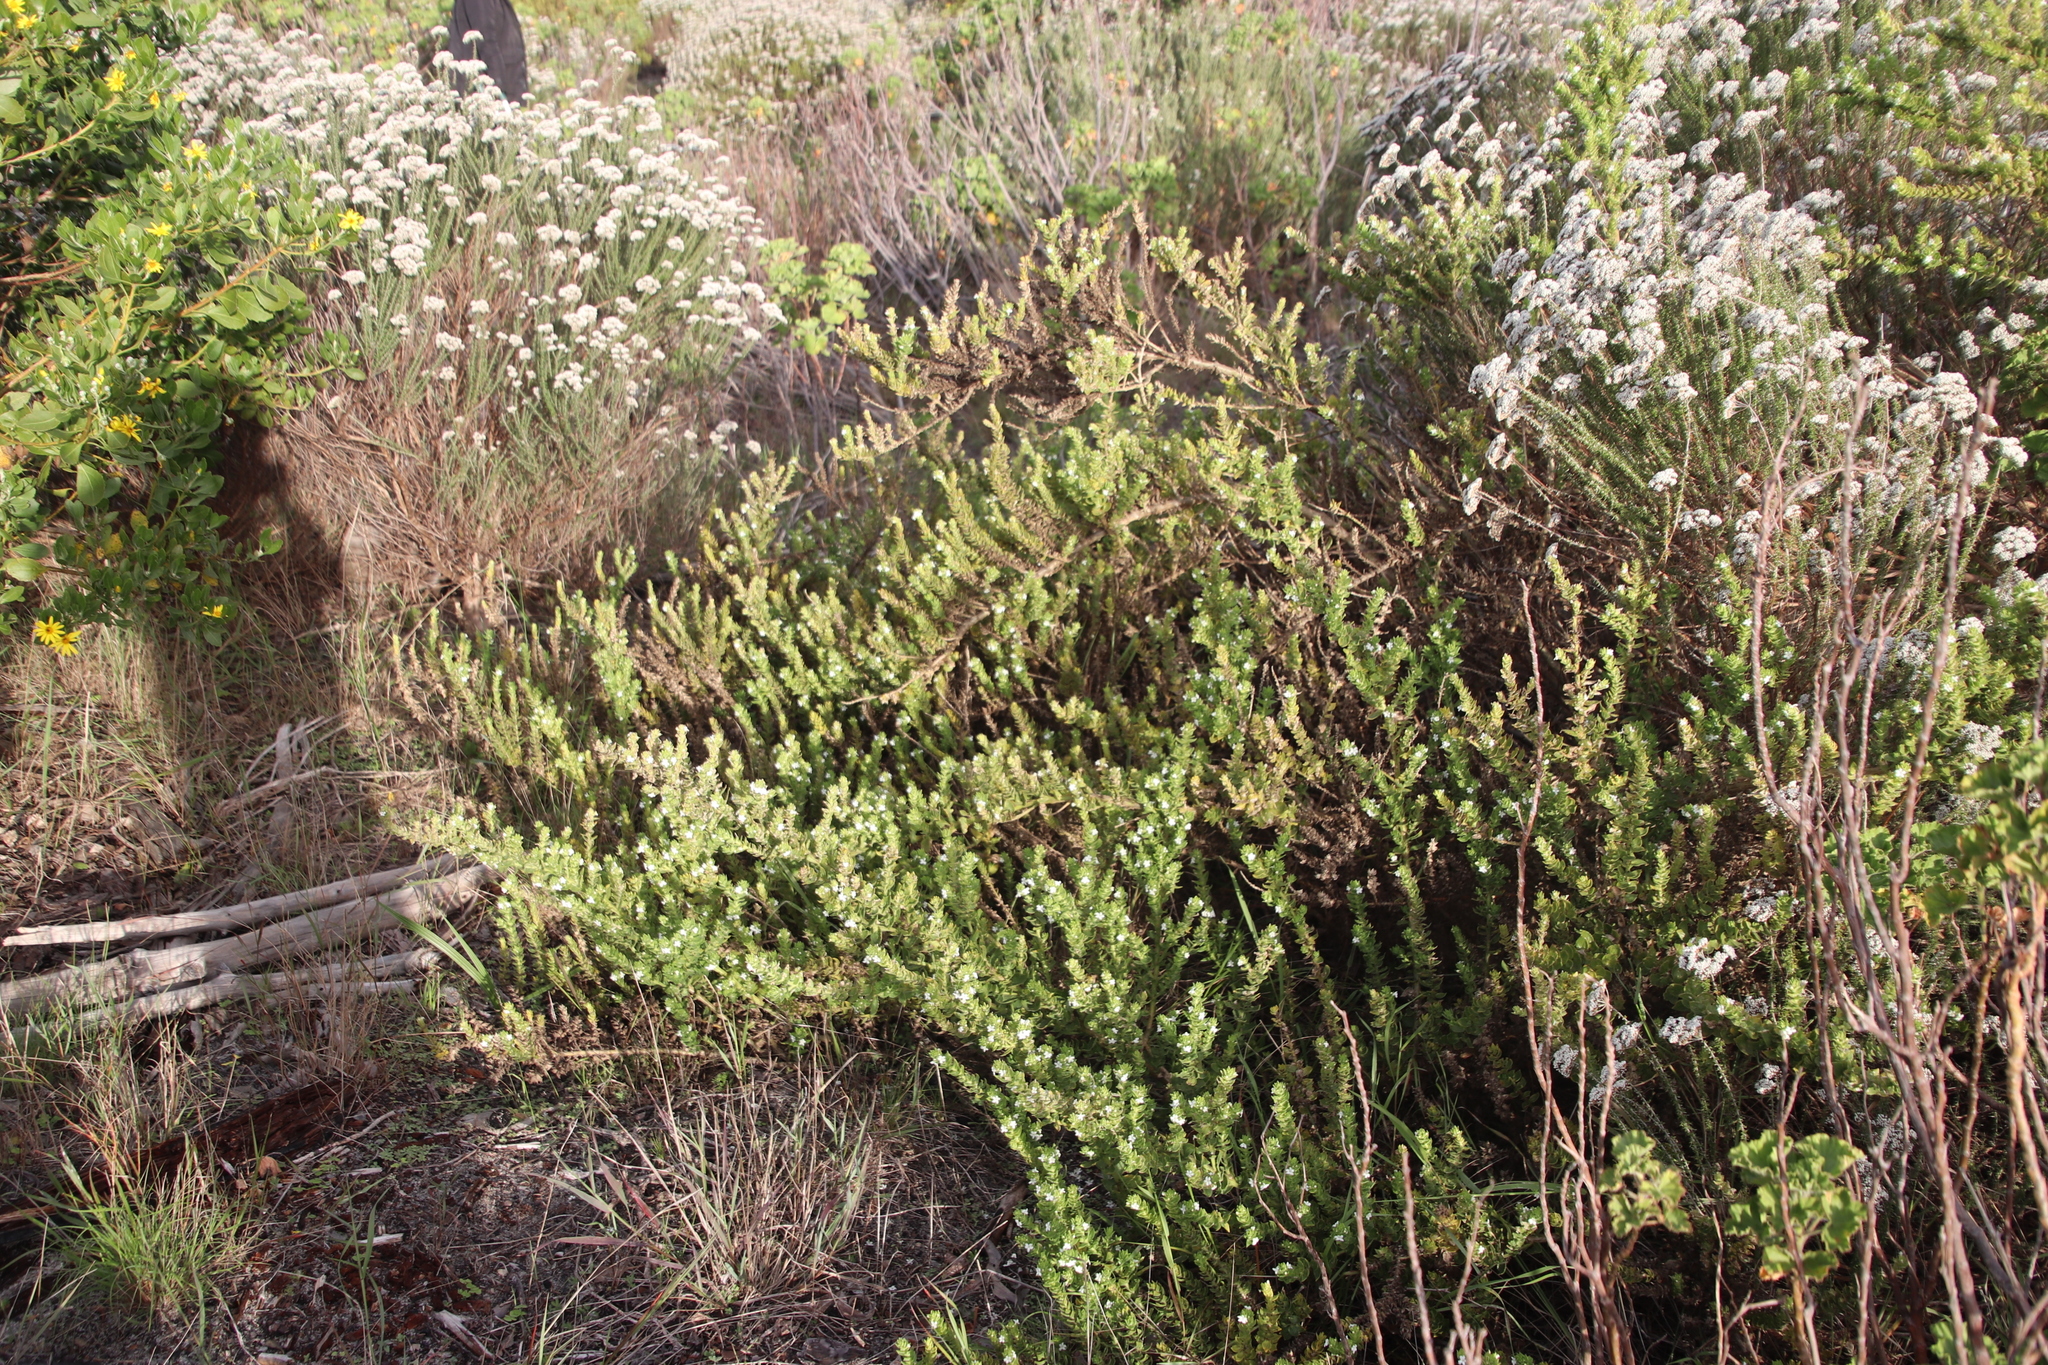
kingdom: Plantae
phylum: Tracheophyta
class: Magnoliopsida
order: Lamiales
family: Scrophulariaceae
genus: Oftia
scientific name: Oftia africana
